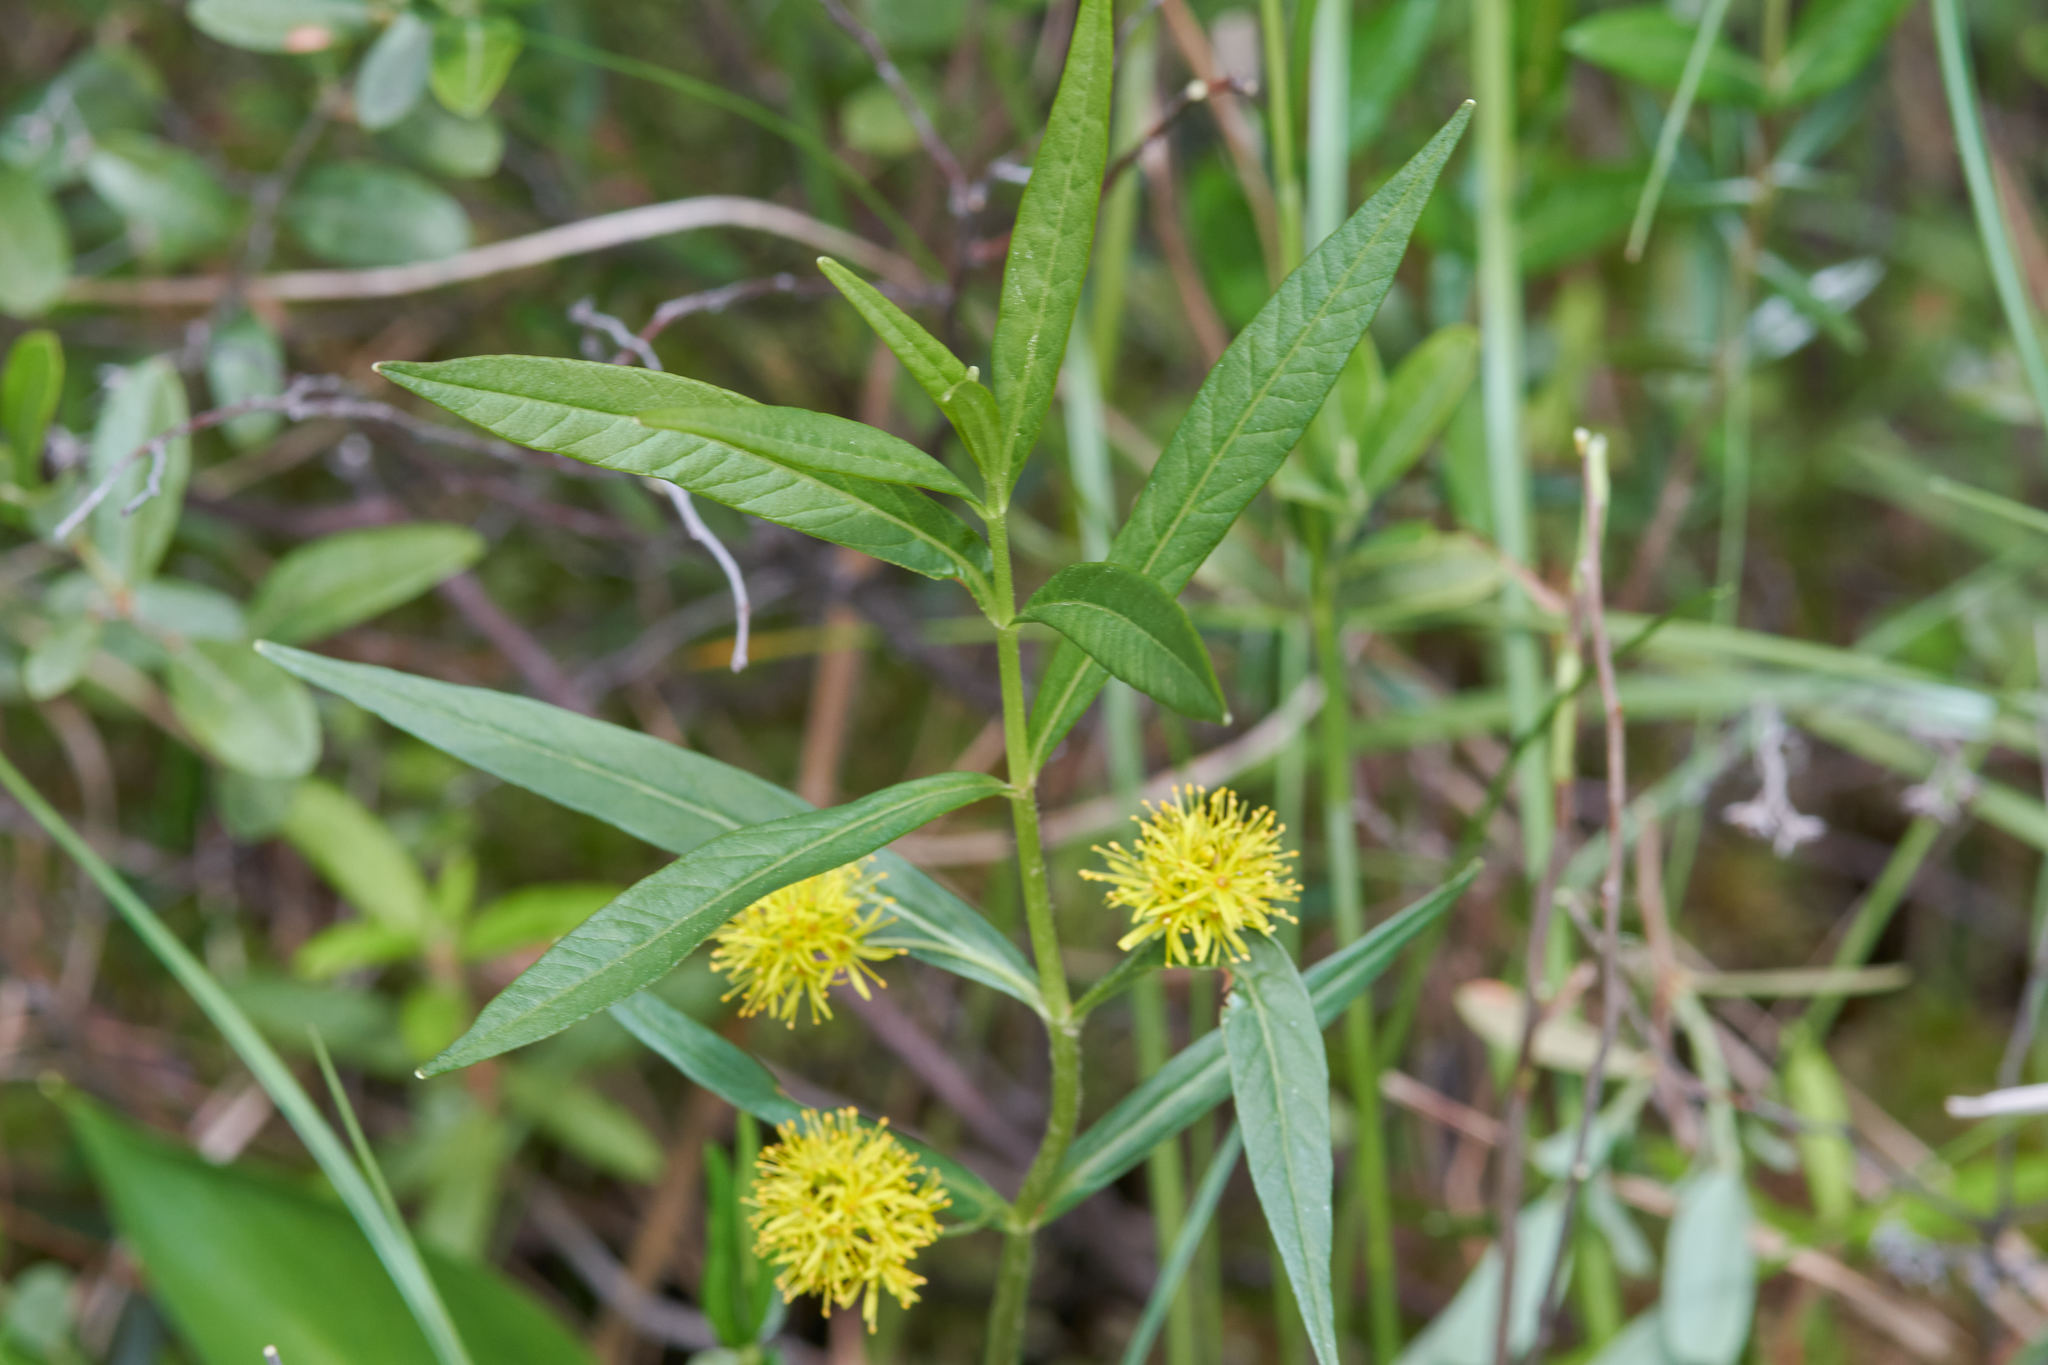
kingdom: Plantae
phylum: Tracheophyta
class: Magnoliopsida
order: Ericales
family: Primulaceae
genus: Lysimachia
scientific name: Lysimachia thyrsiflora
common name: Tufted loosestrife
